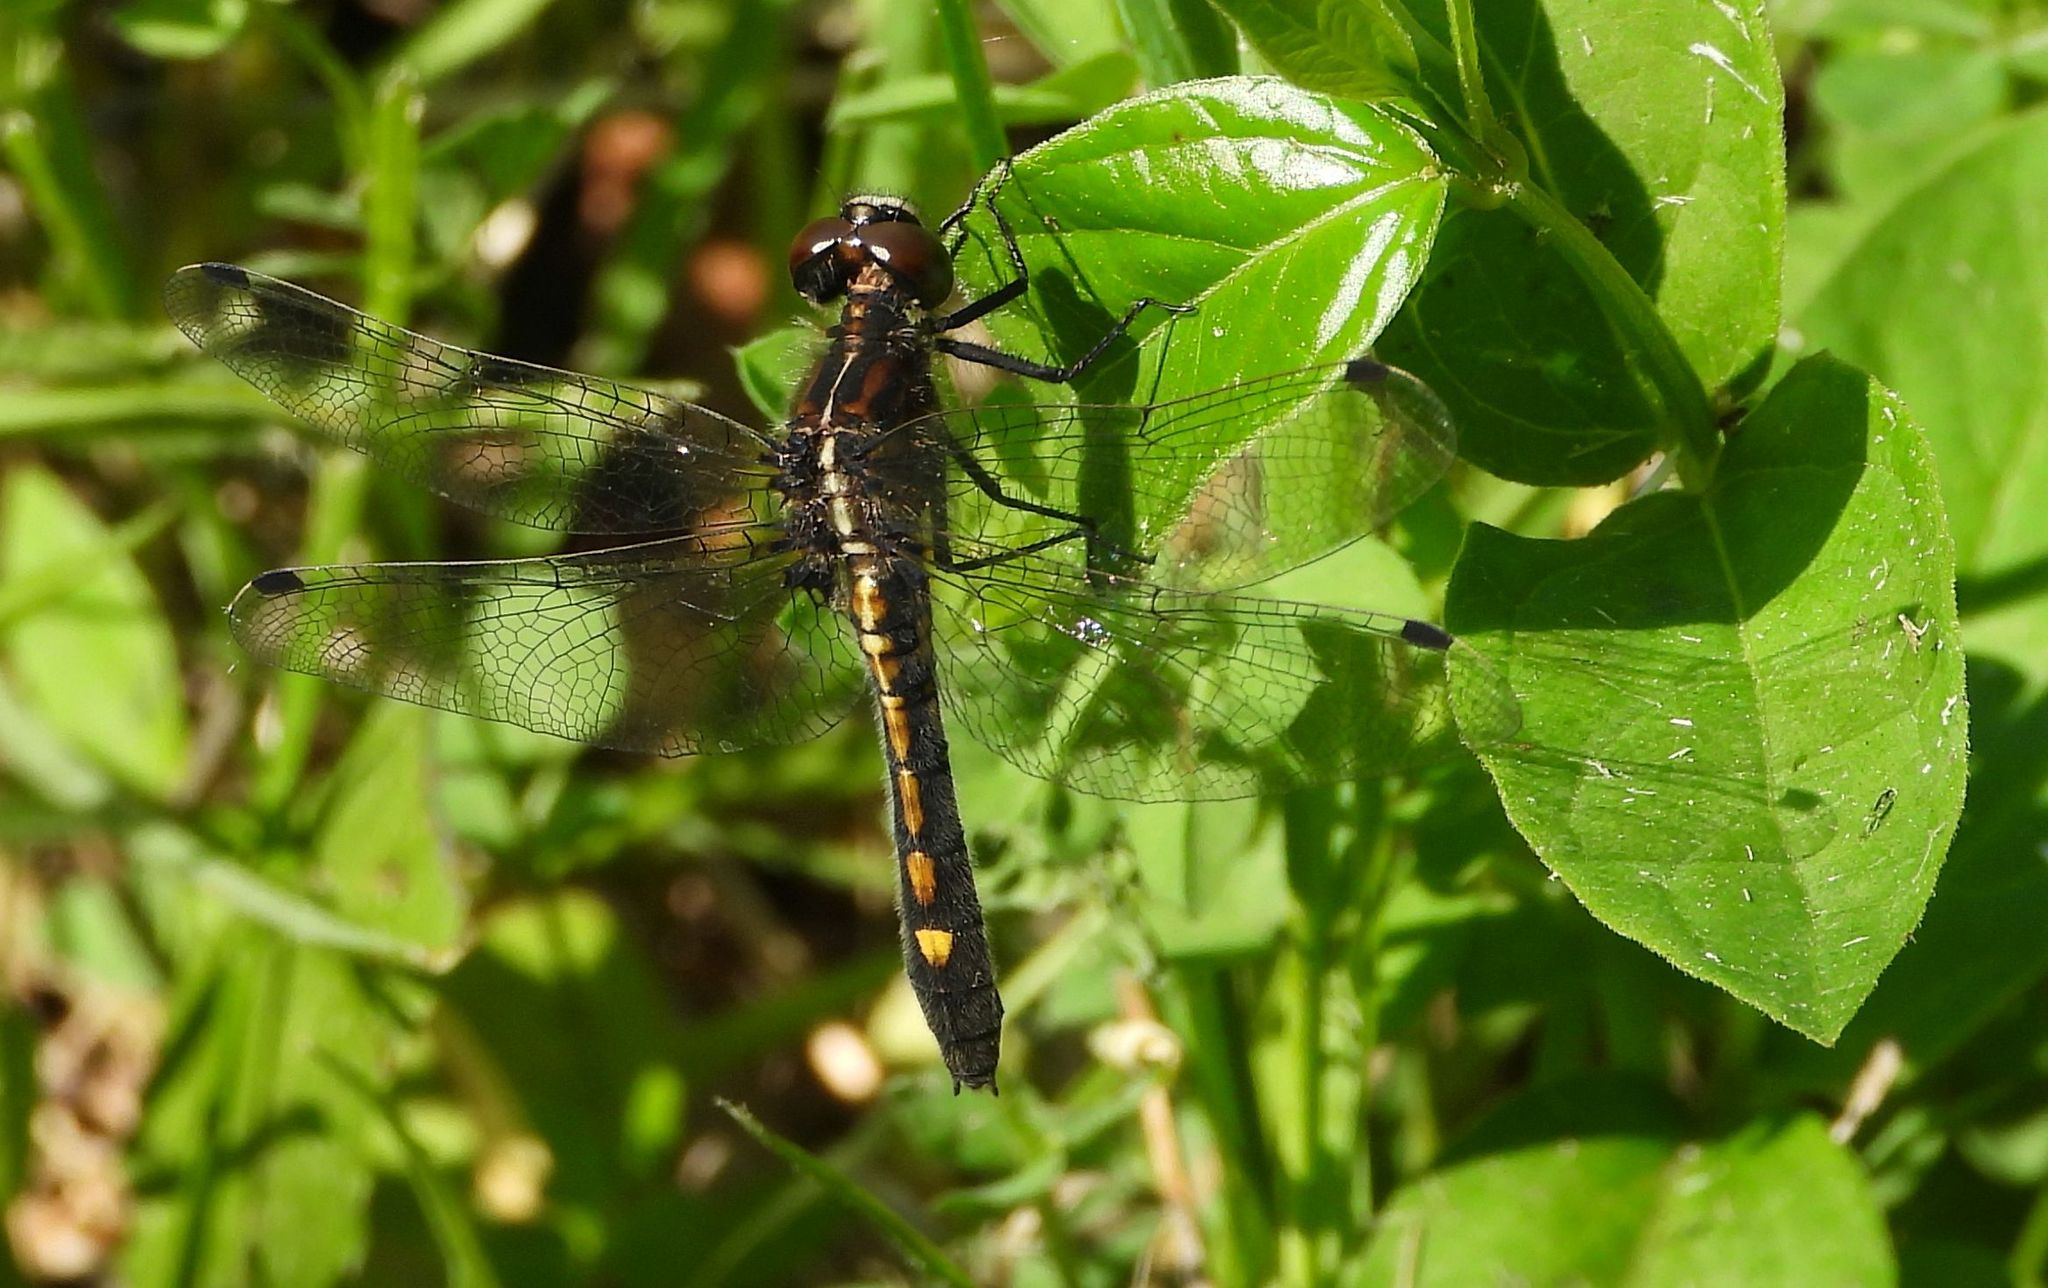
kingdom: Animalia
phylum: Arthropoda
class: Insecta
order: Odonata
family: Libellulidae
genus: Leucorrhinia
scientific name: Leucorrhinia intacta
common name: Dot-tailed whiteface
